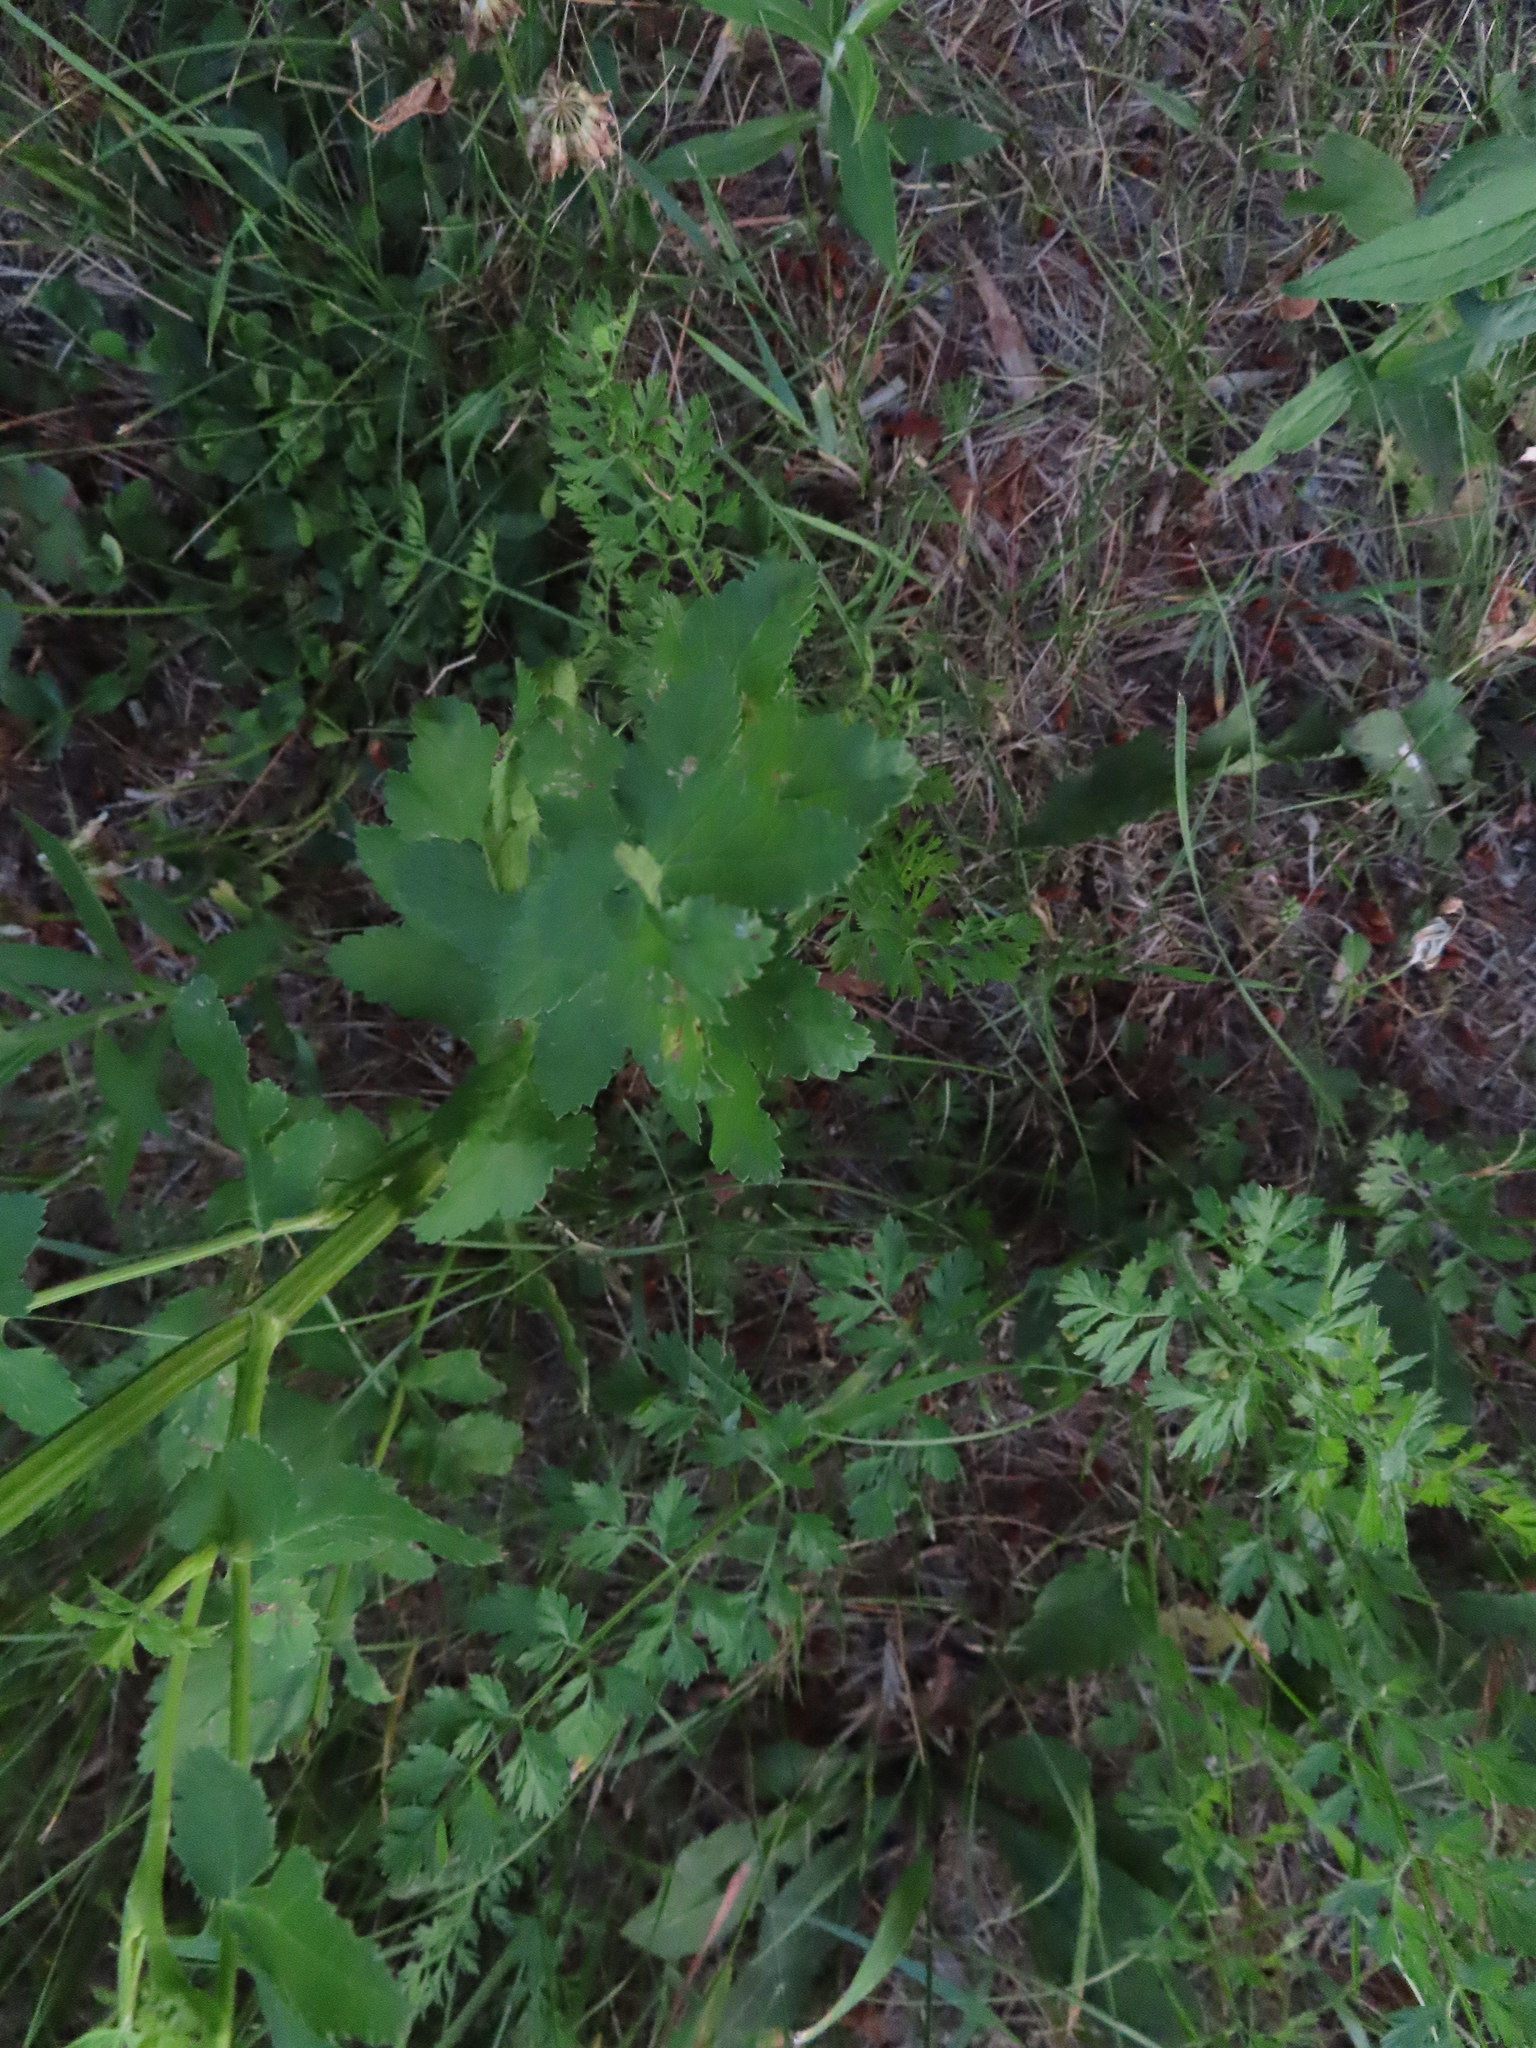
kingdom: Plantae
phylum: Tracheophyta
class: Magnoliopsida
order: Apiales
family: Apiaceae
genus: Pastinaca
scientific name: Pastinaca sativa
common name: Wild parsnip
